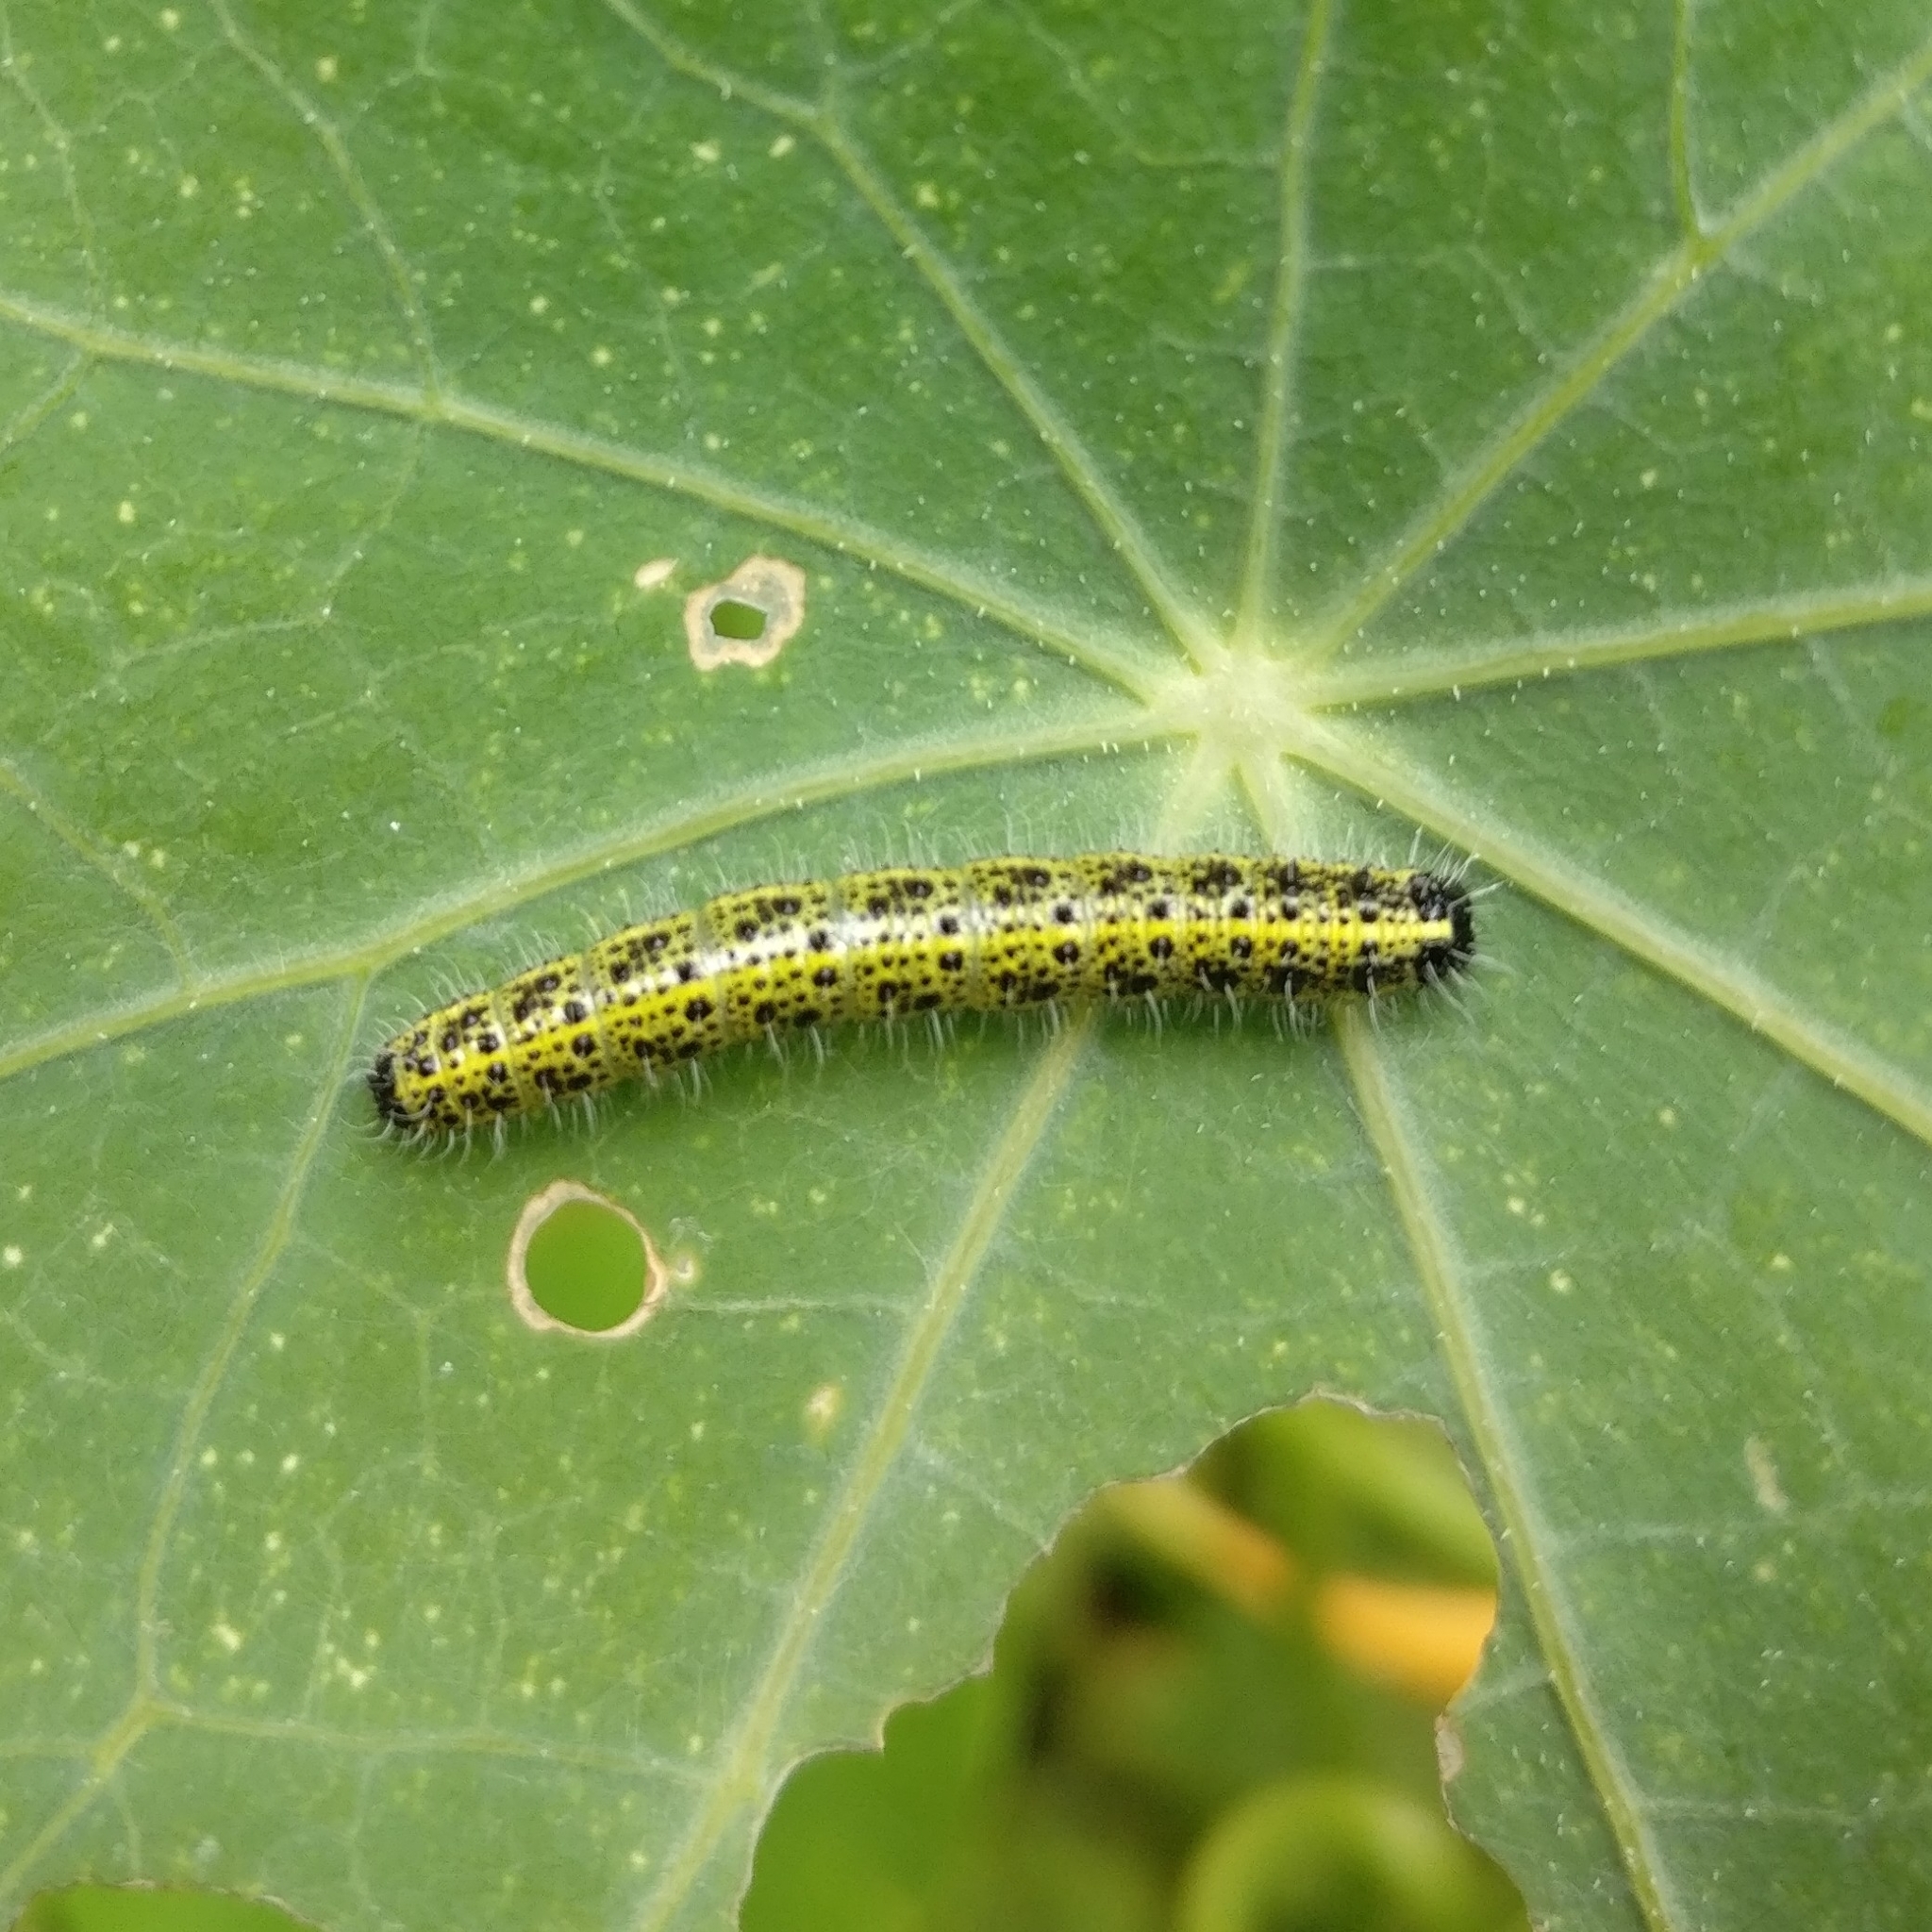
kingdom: Animalia
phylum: Arthropoda
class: Insecta
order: Lepidoptera
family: Pieridae
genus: Pieris
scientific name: Pieris brassicae
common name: Large white
